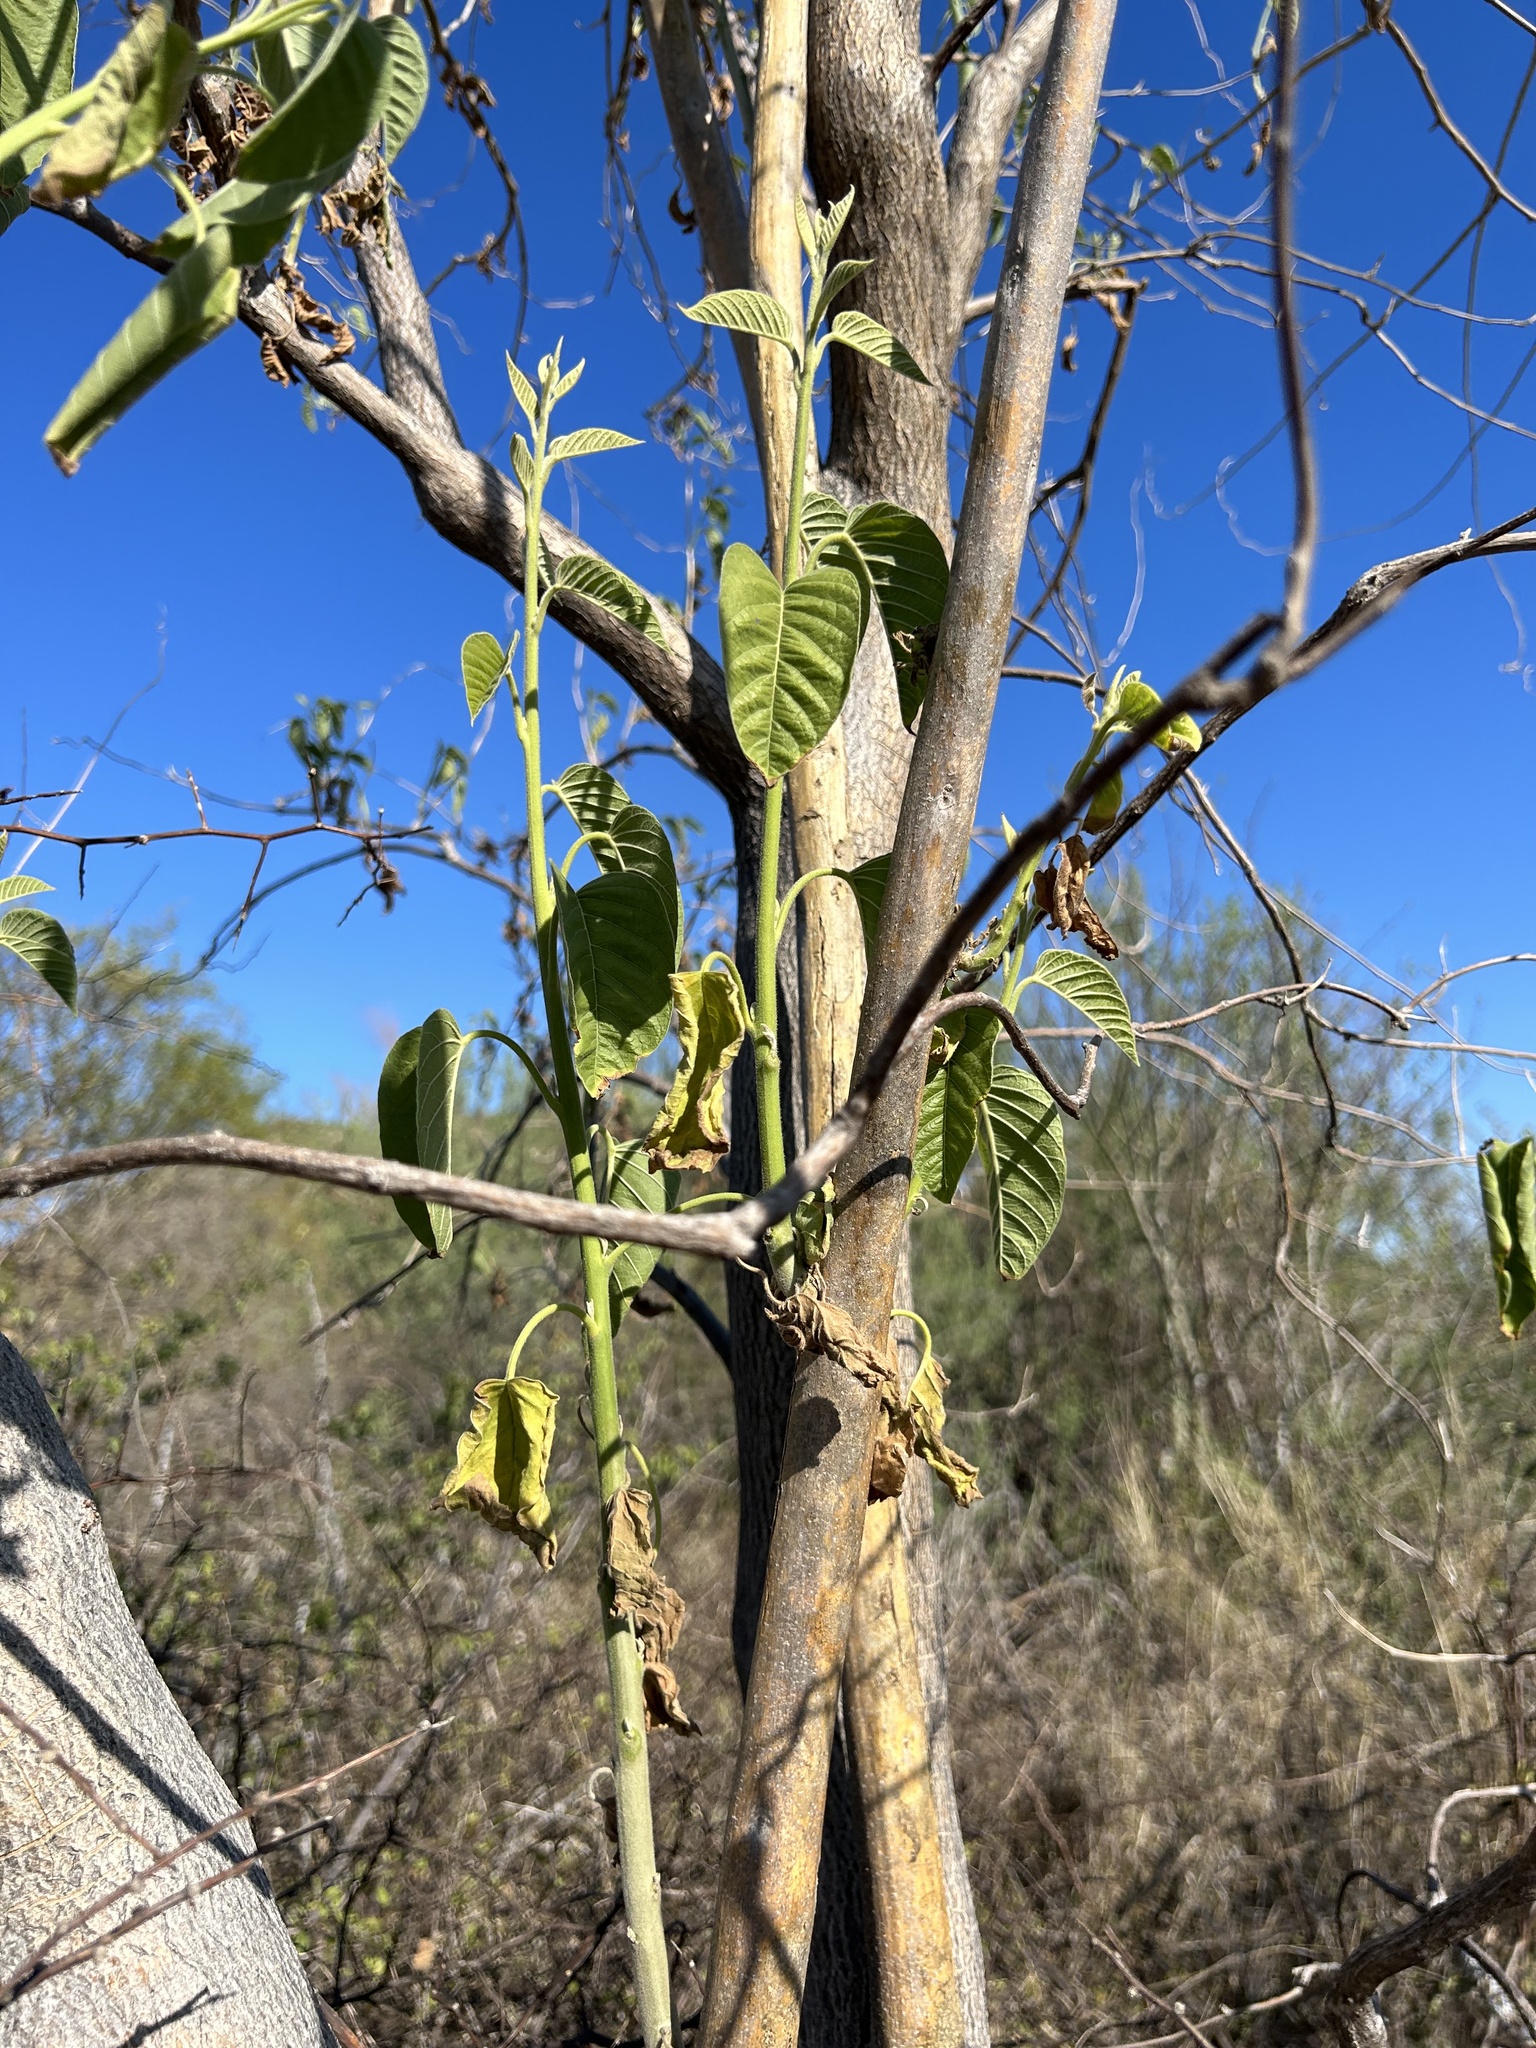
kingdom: Plantae
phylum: Tracheophyta
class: Magnoliopsida
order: Solanales
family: Convolvulaceae
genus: Ipomoea
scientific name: Ipomoea arborescens
